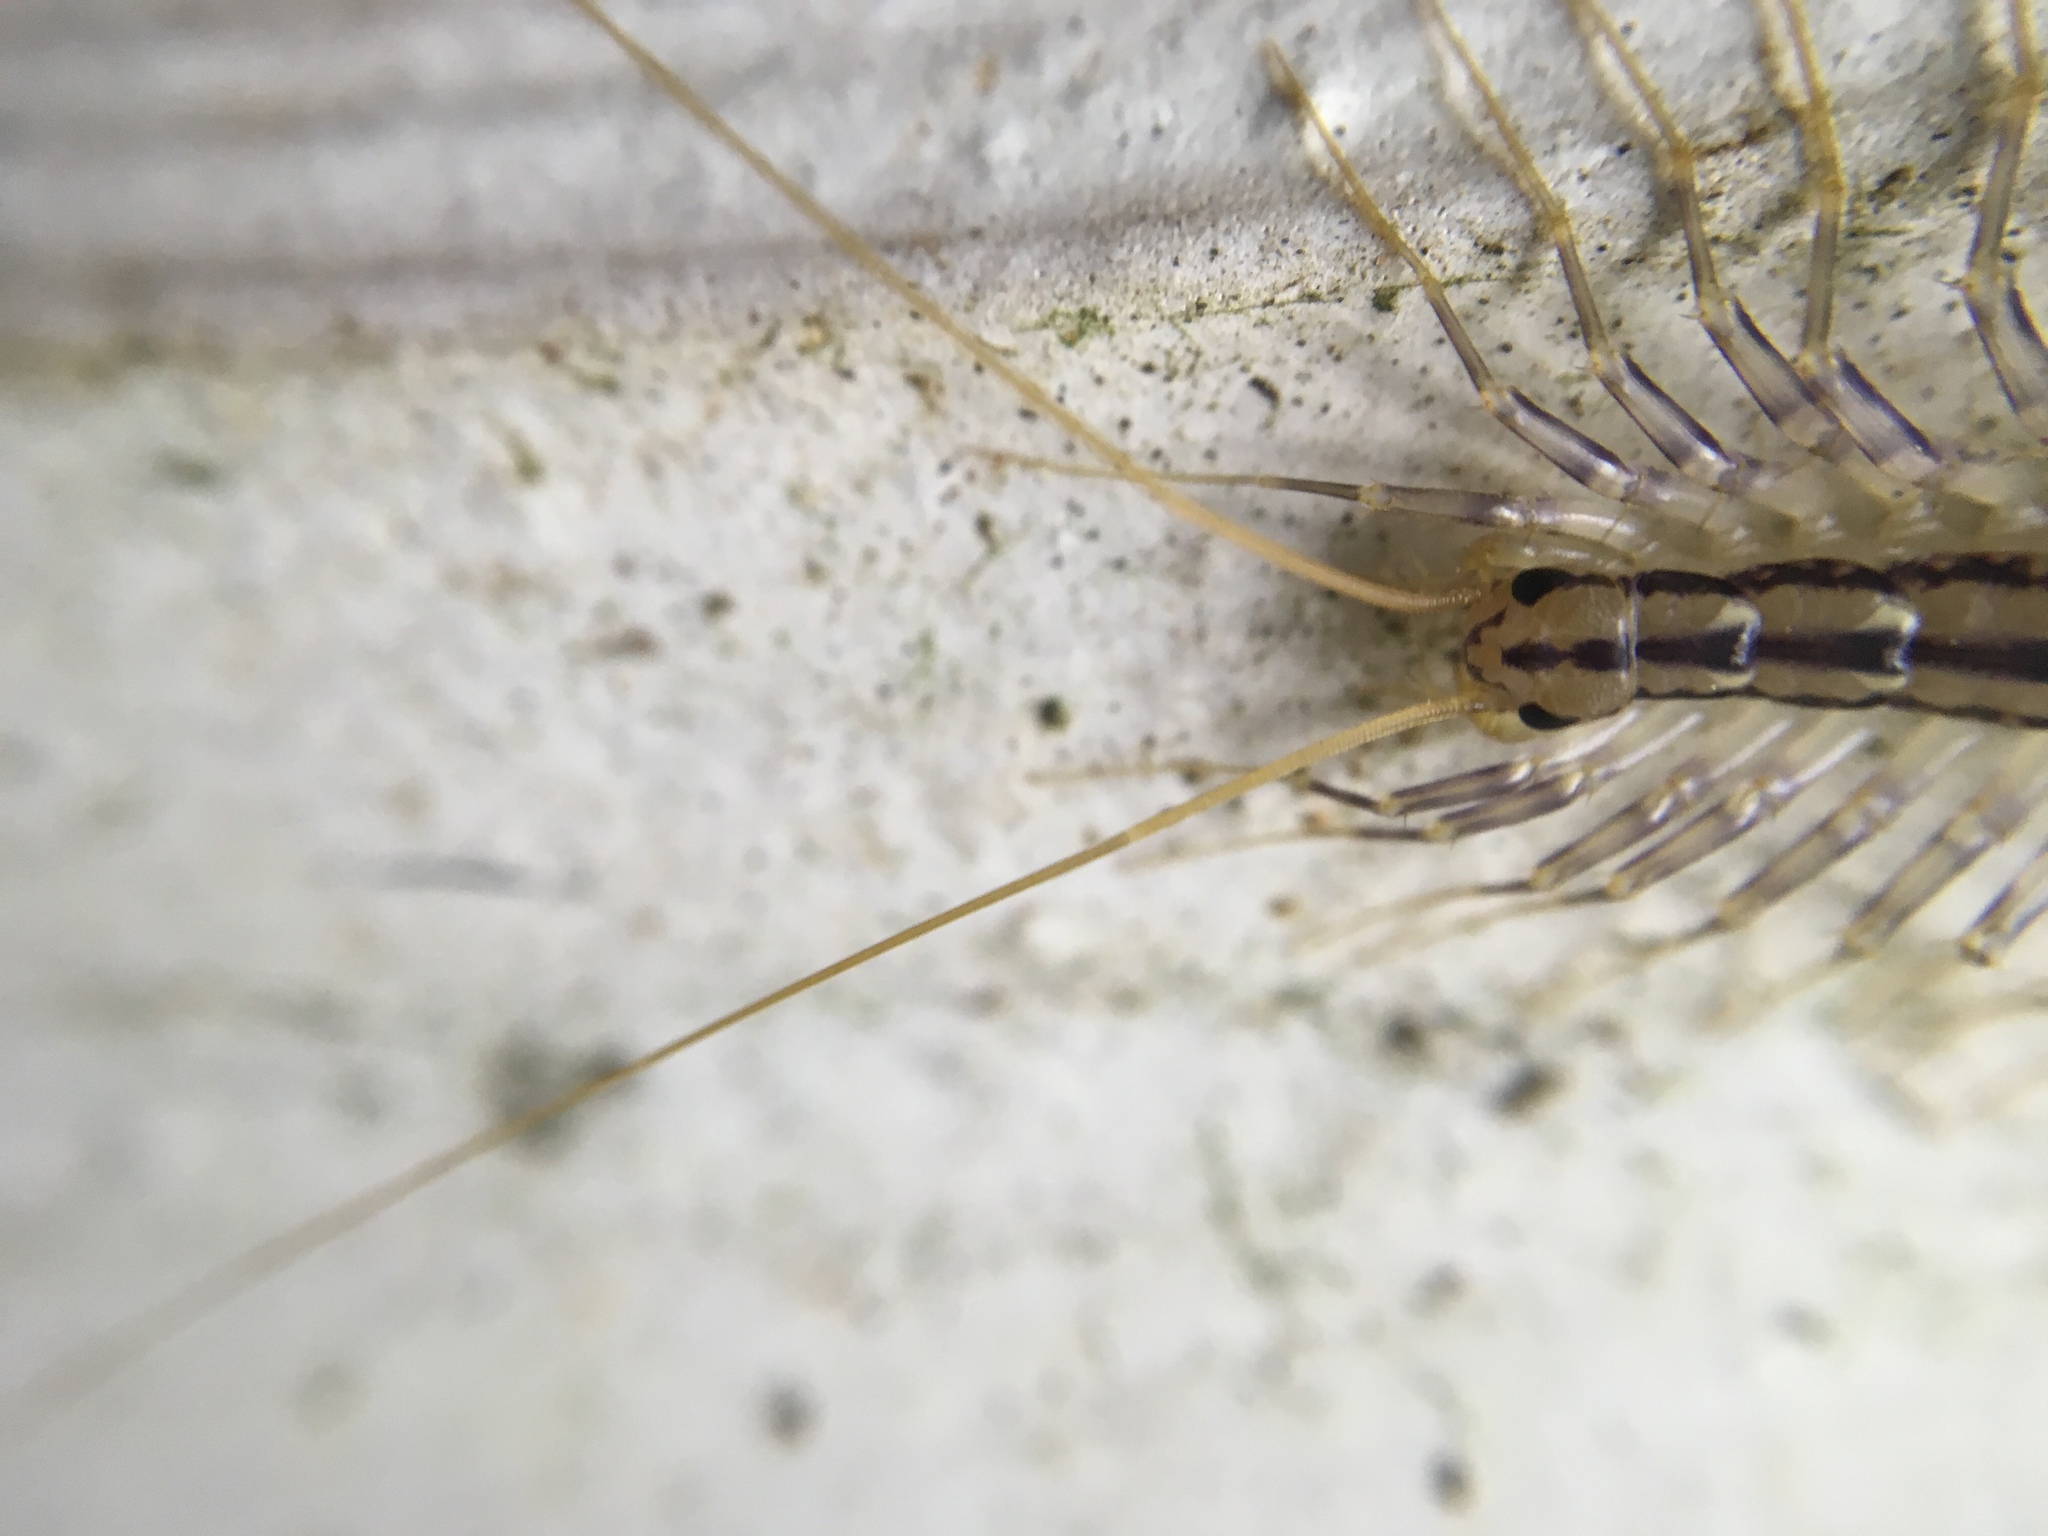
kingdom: Animalia
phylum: Arthropoda
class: Chilopoda
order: Scutigeromorpha
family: Scutigeridae
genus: Scutigera
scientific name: Scutigera coleoptrata
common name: House centipede
